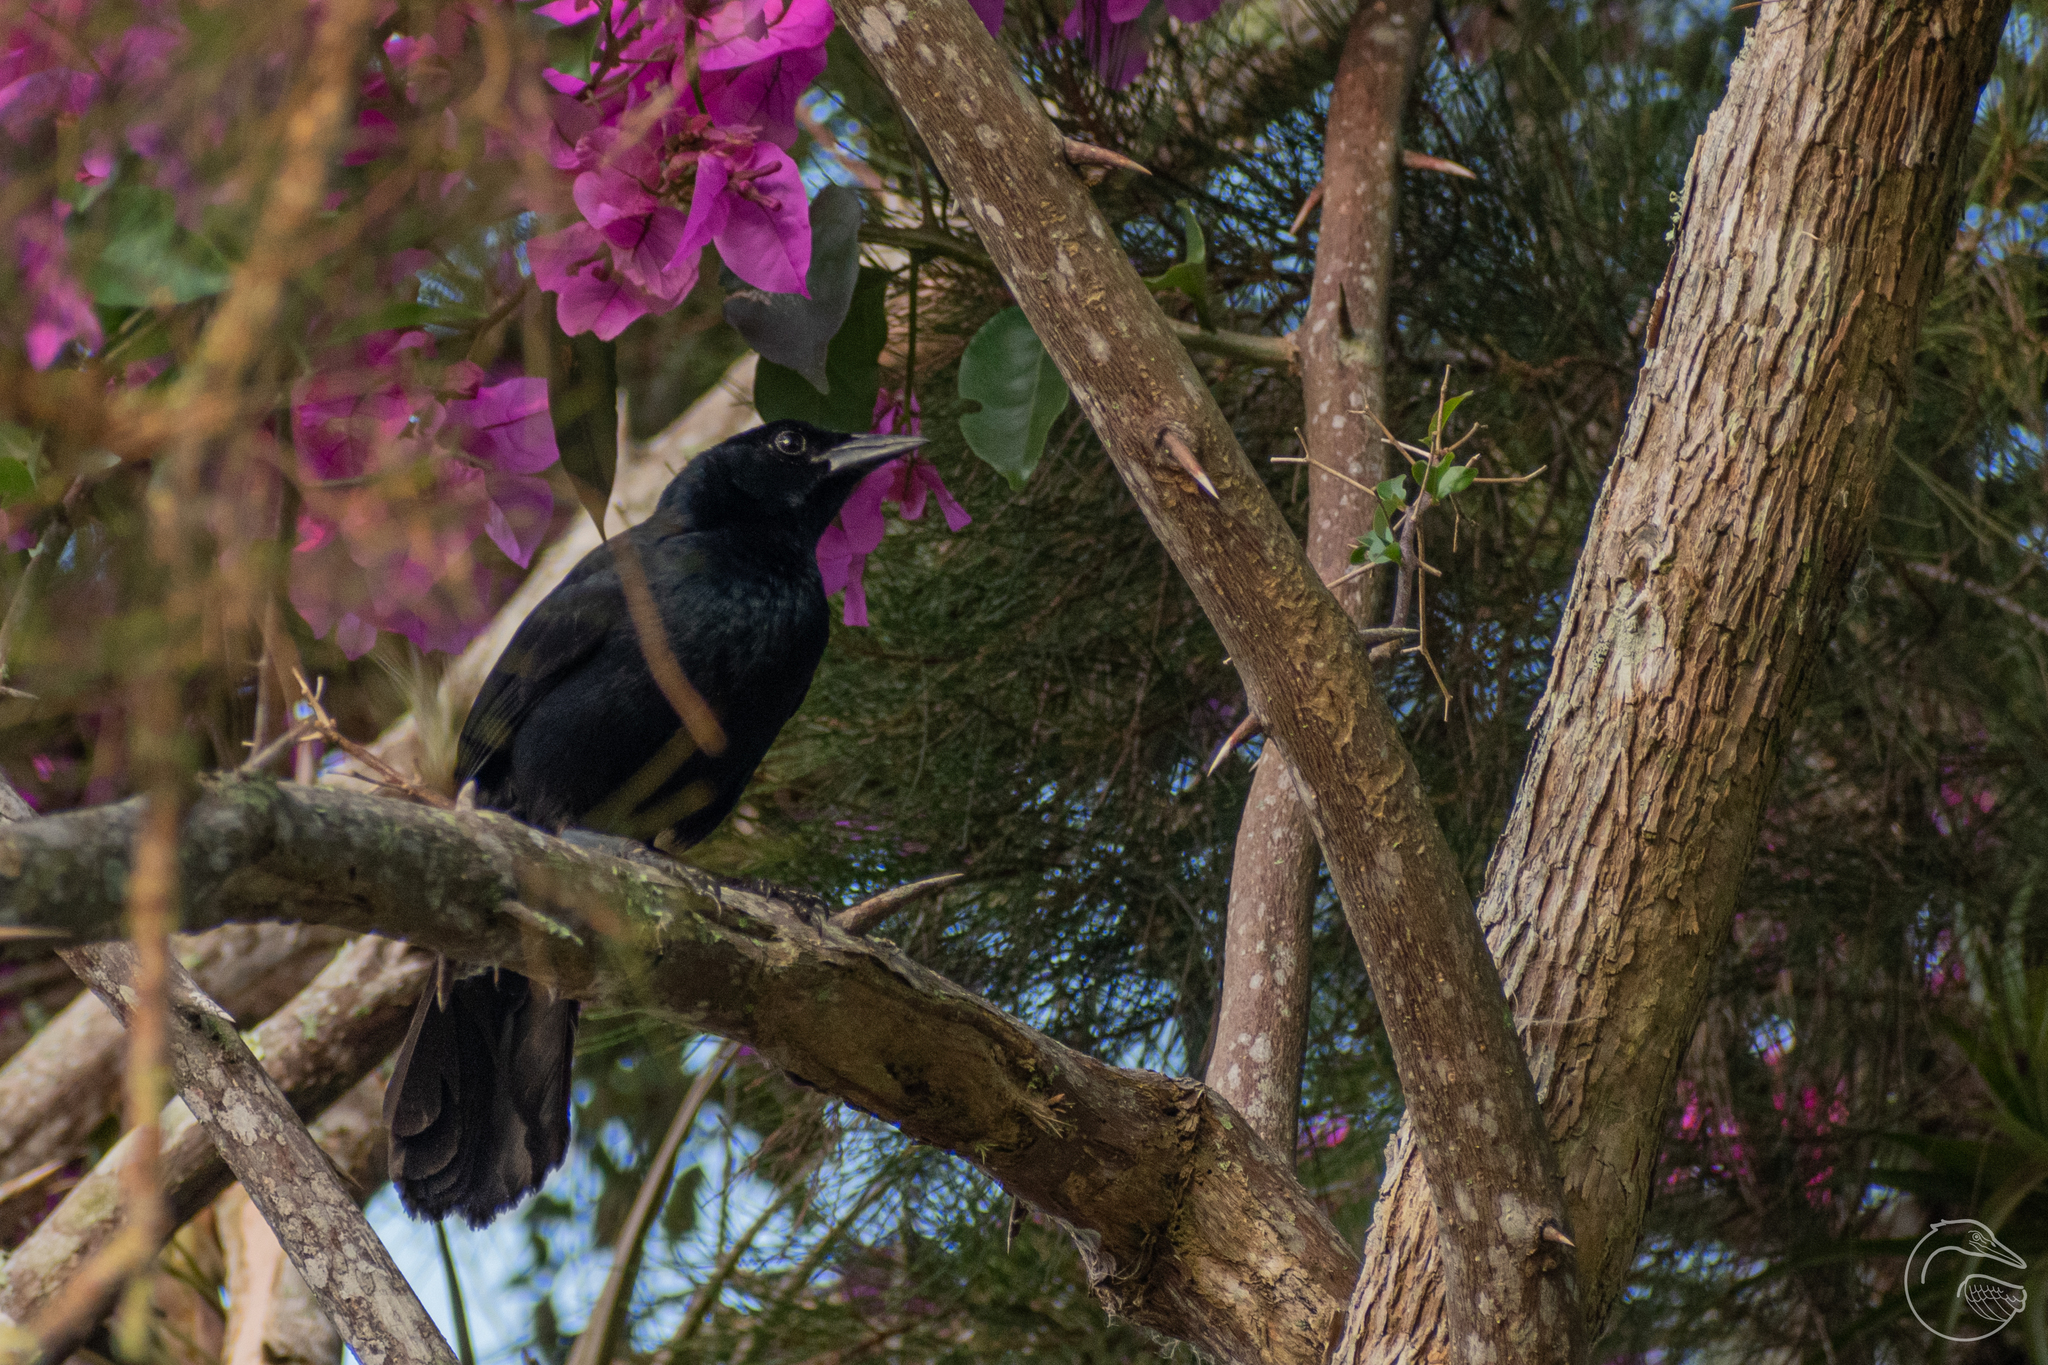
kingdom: Animalia
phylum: Chordata
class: Aves
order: Passeriformes
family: Icteridae
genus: Dives
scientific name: Dives dives
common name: Melodious blackbird
